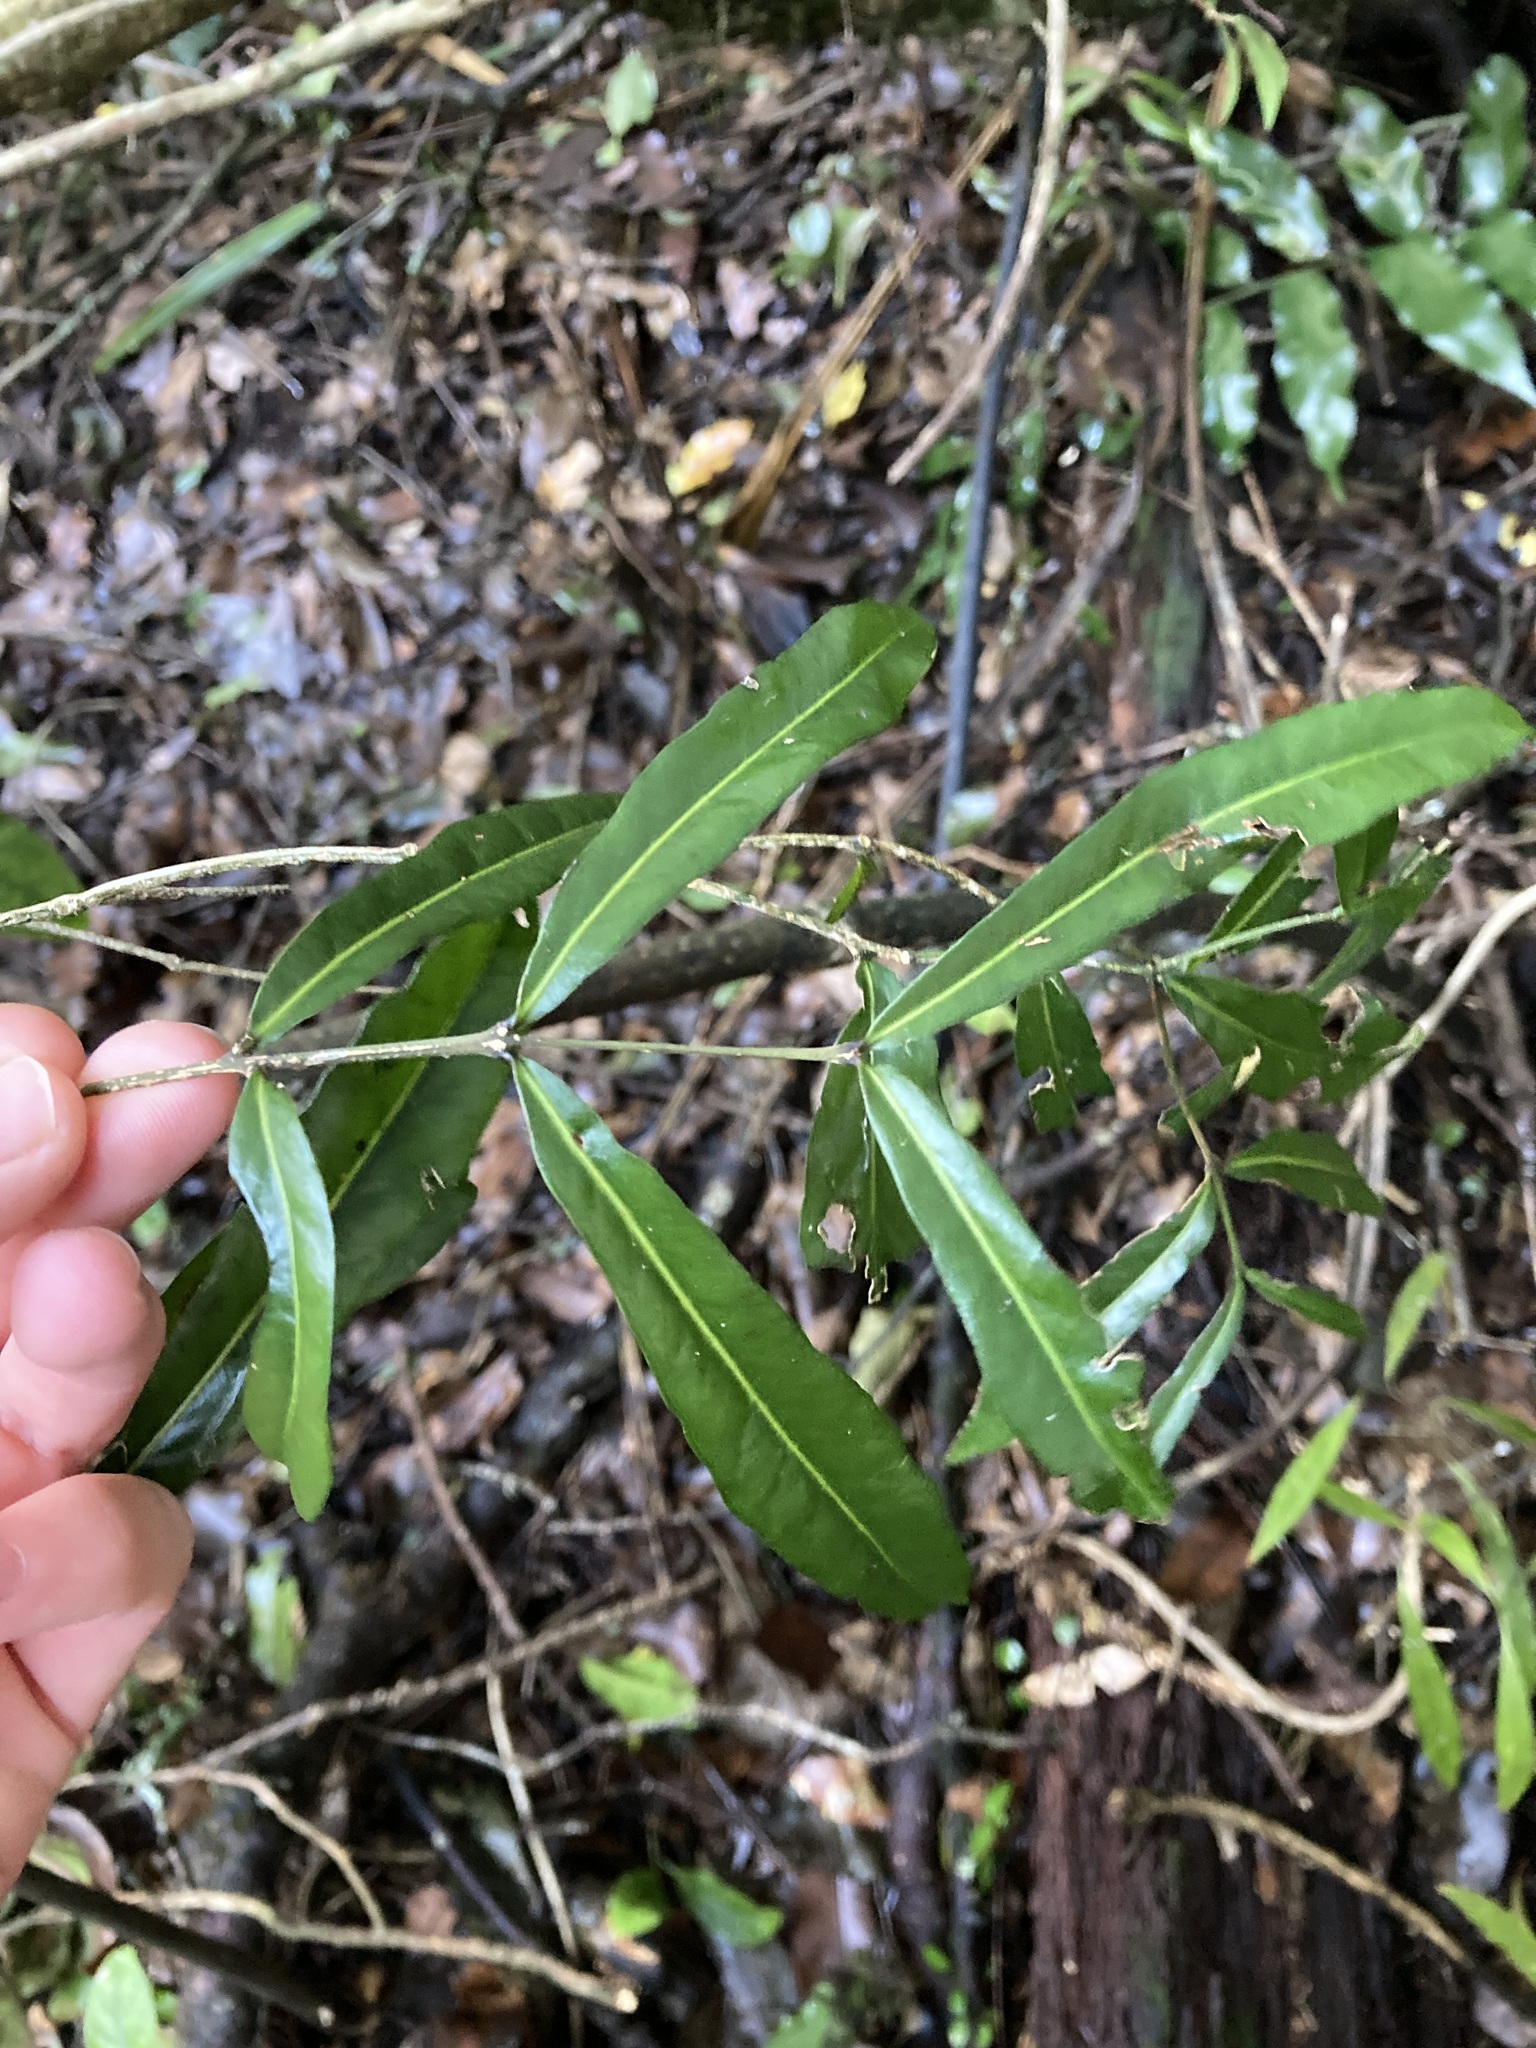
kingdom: Plantae
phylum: Tracheophyta
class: Magnoliopsida
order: Santalales
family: Nanodeaceae
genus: Mida
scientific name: Mida salicifolia
